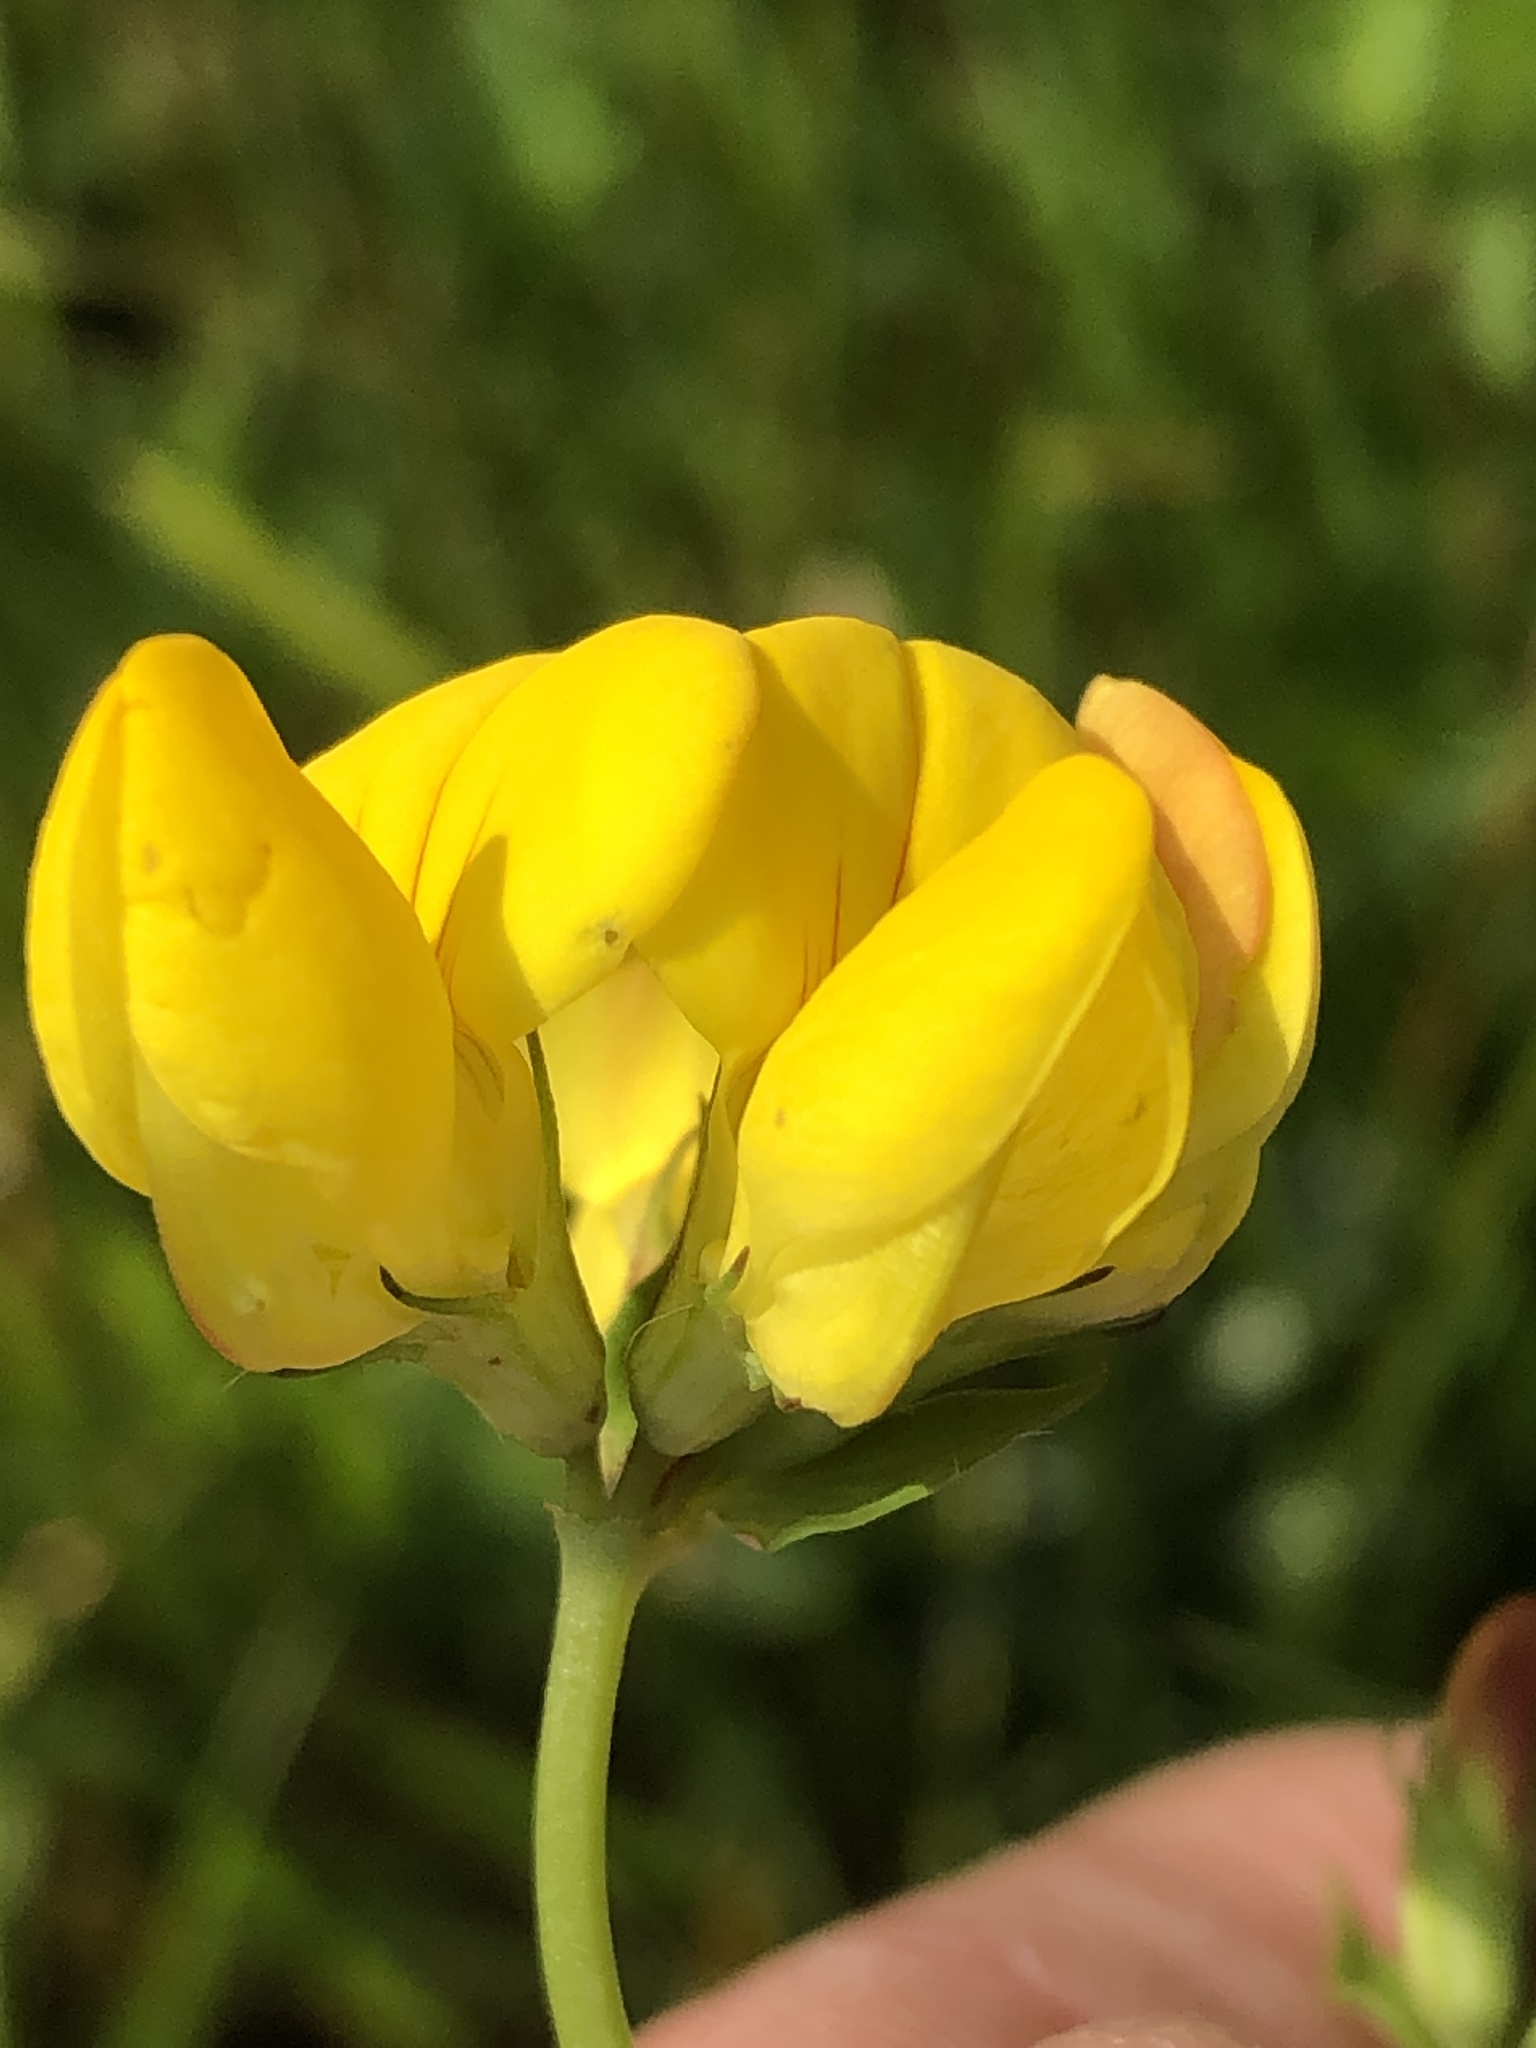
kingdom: Plantae
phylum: Tracheophyta
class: Magnoliopsida
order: Fabales
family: Fabaceae
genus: Lotus
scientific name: Lotus corniculatus
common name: Common bird's-foot-trefoil
